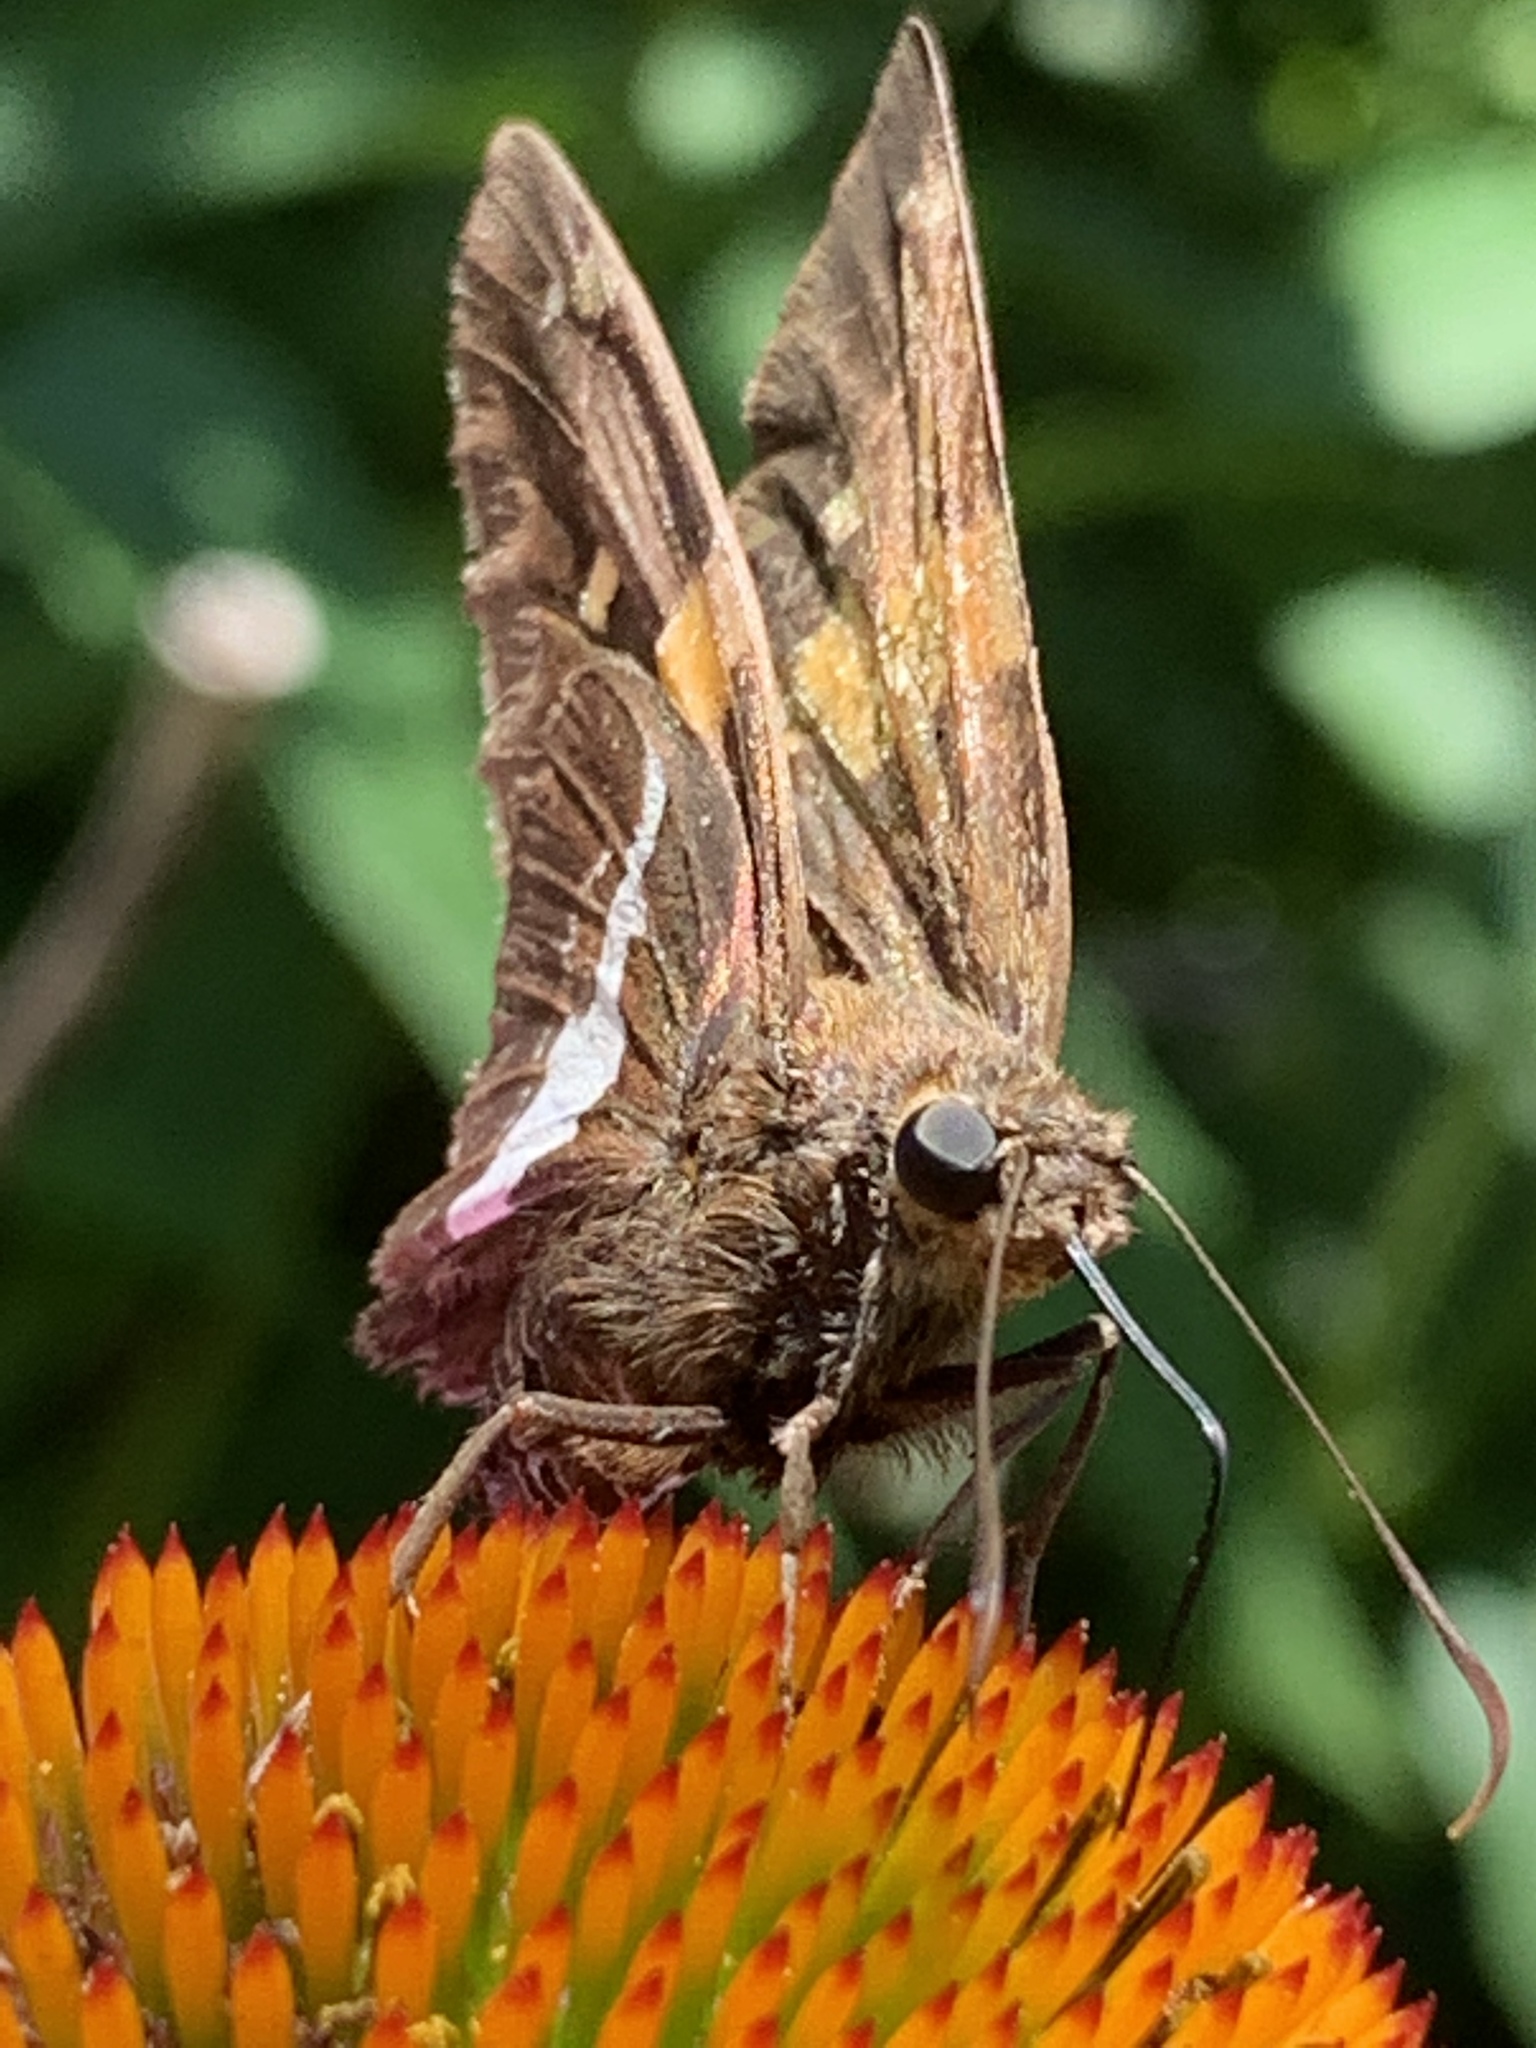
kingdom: Animalia
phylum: Arthropoda
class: Insecta
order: Lepidoptera
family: Hesperiidae
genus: Epargyreus
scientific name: Epargyreus clarus
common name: Silver-spotted skipper
